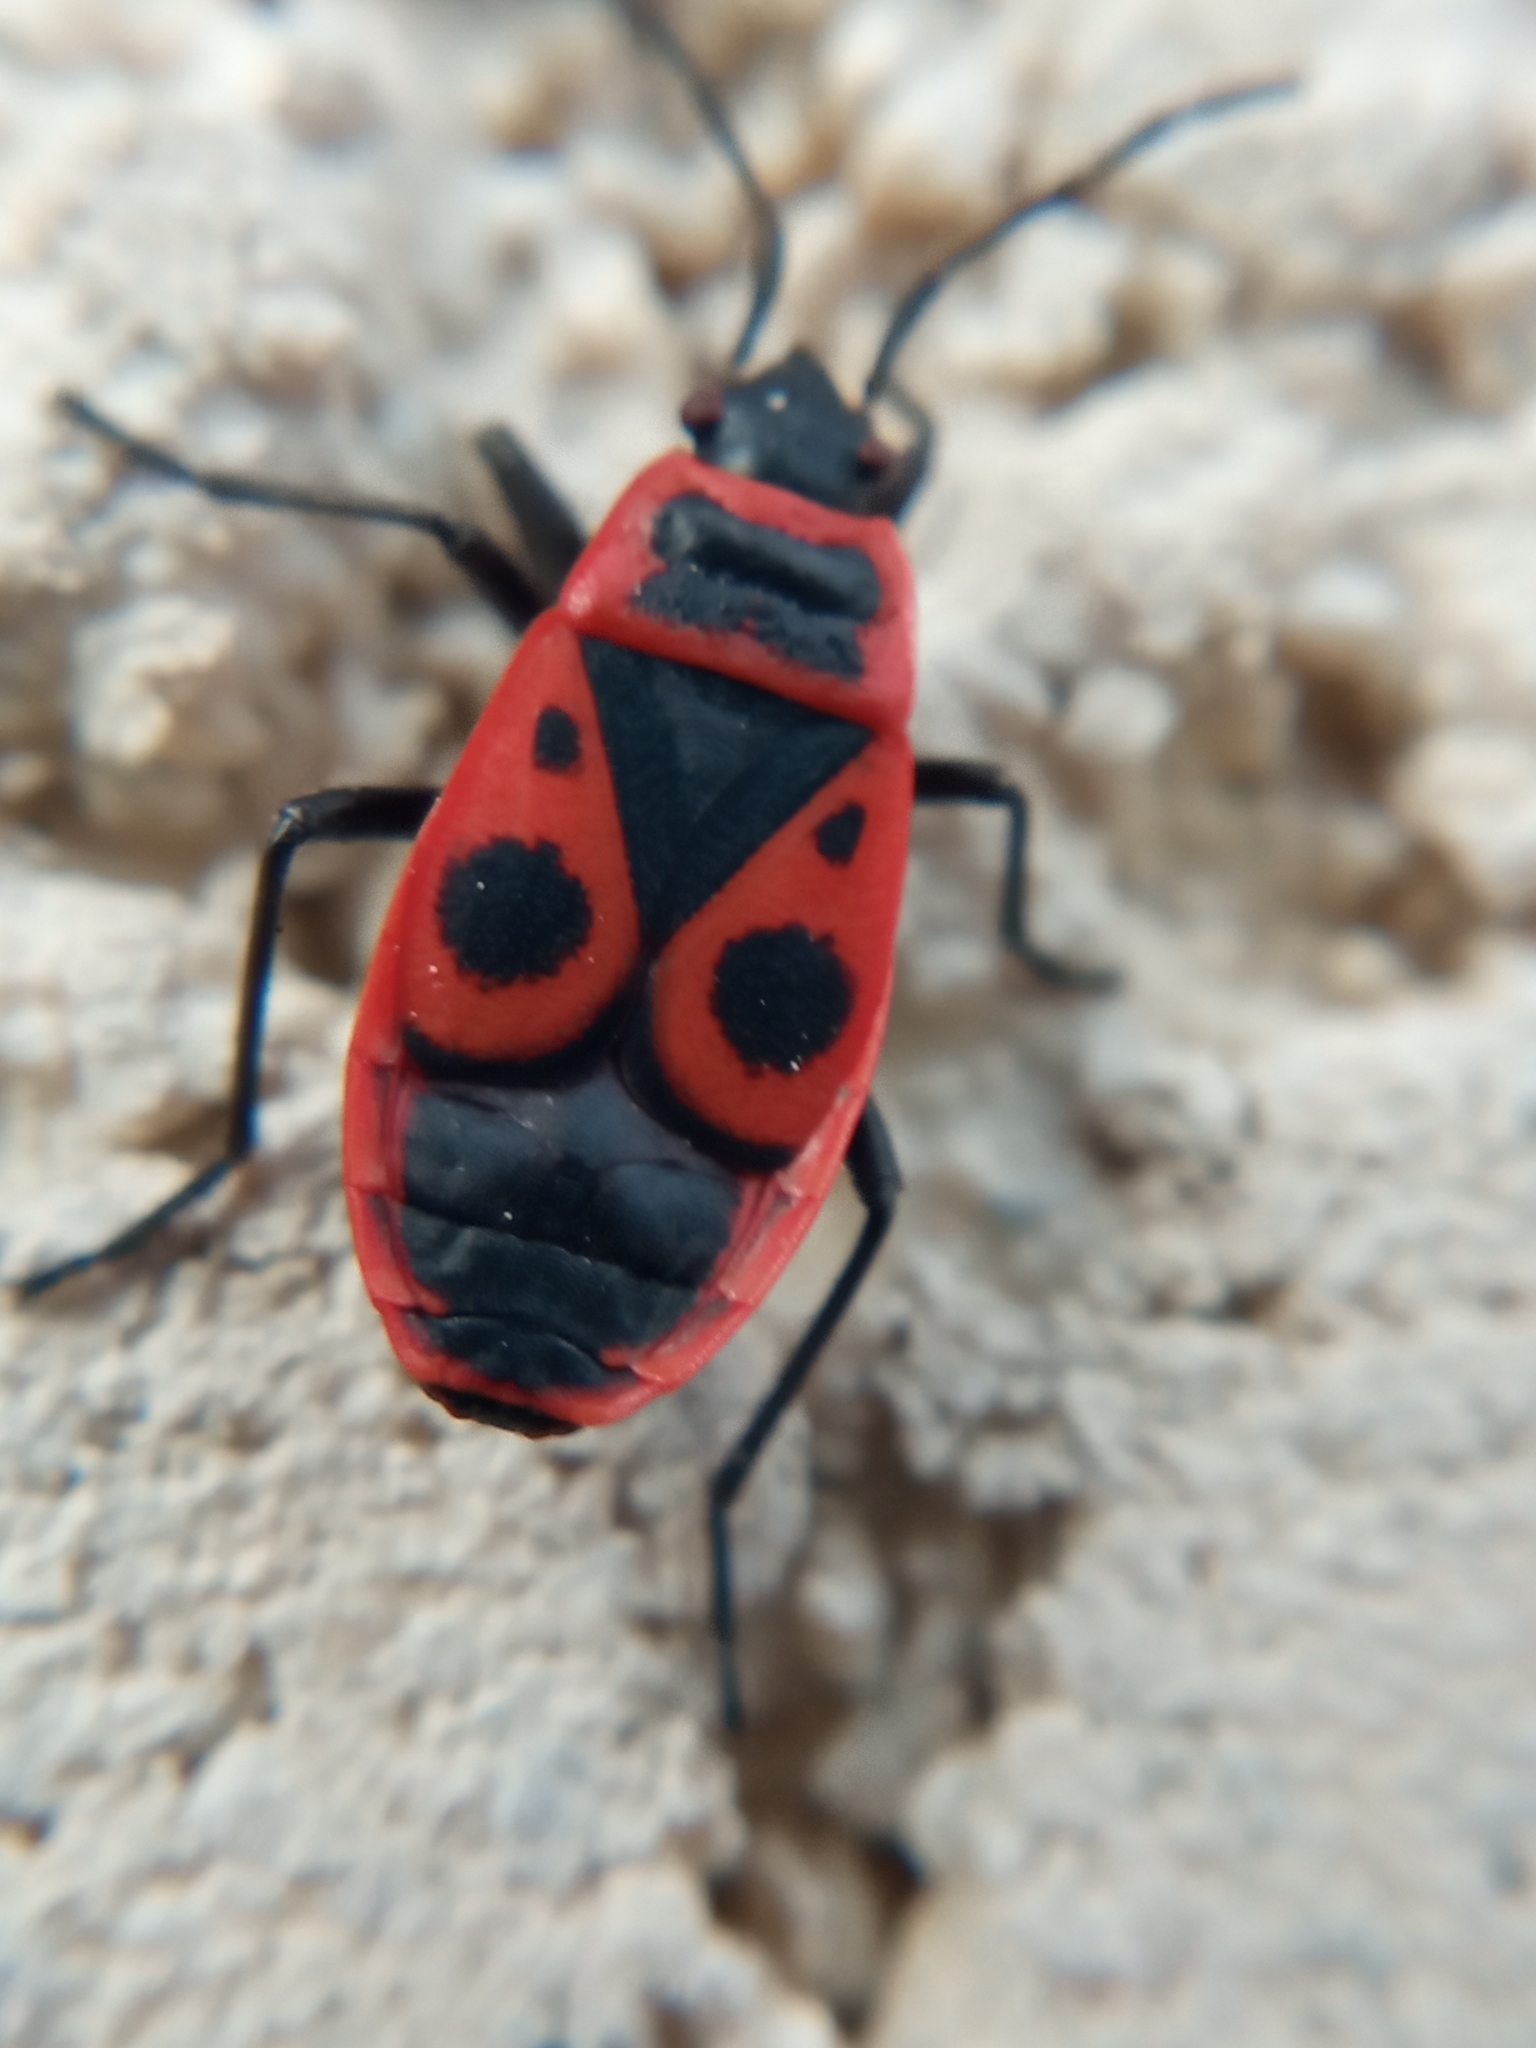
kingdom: Animalia
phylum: Arthropoda
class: Insecta
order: Hemiptera
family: Pyrrhocoridae
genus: Pyrrhocoris
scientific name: Pyrrhocoris apterus
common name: Firebug
